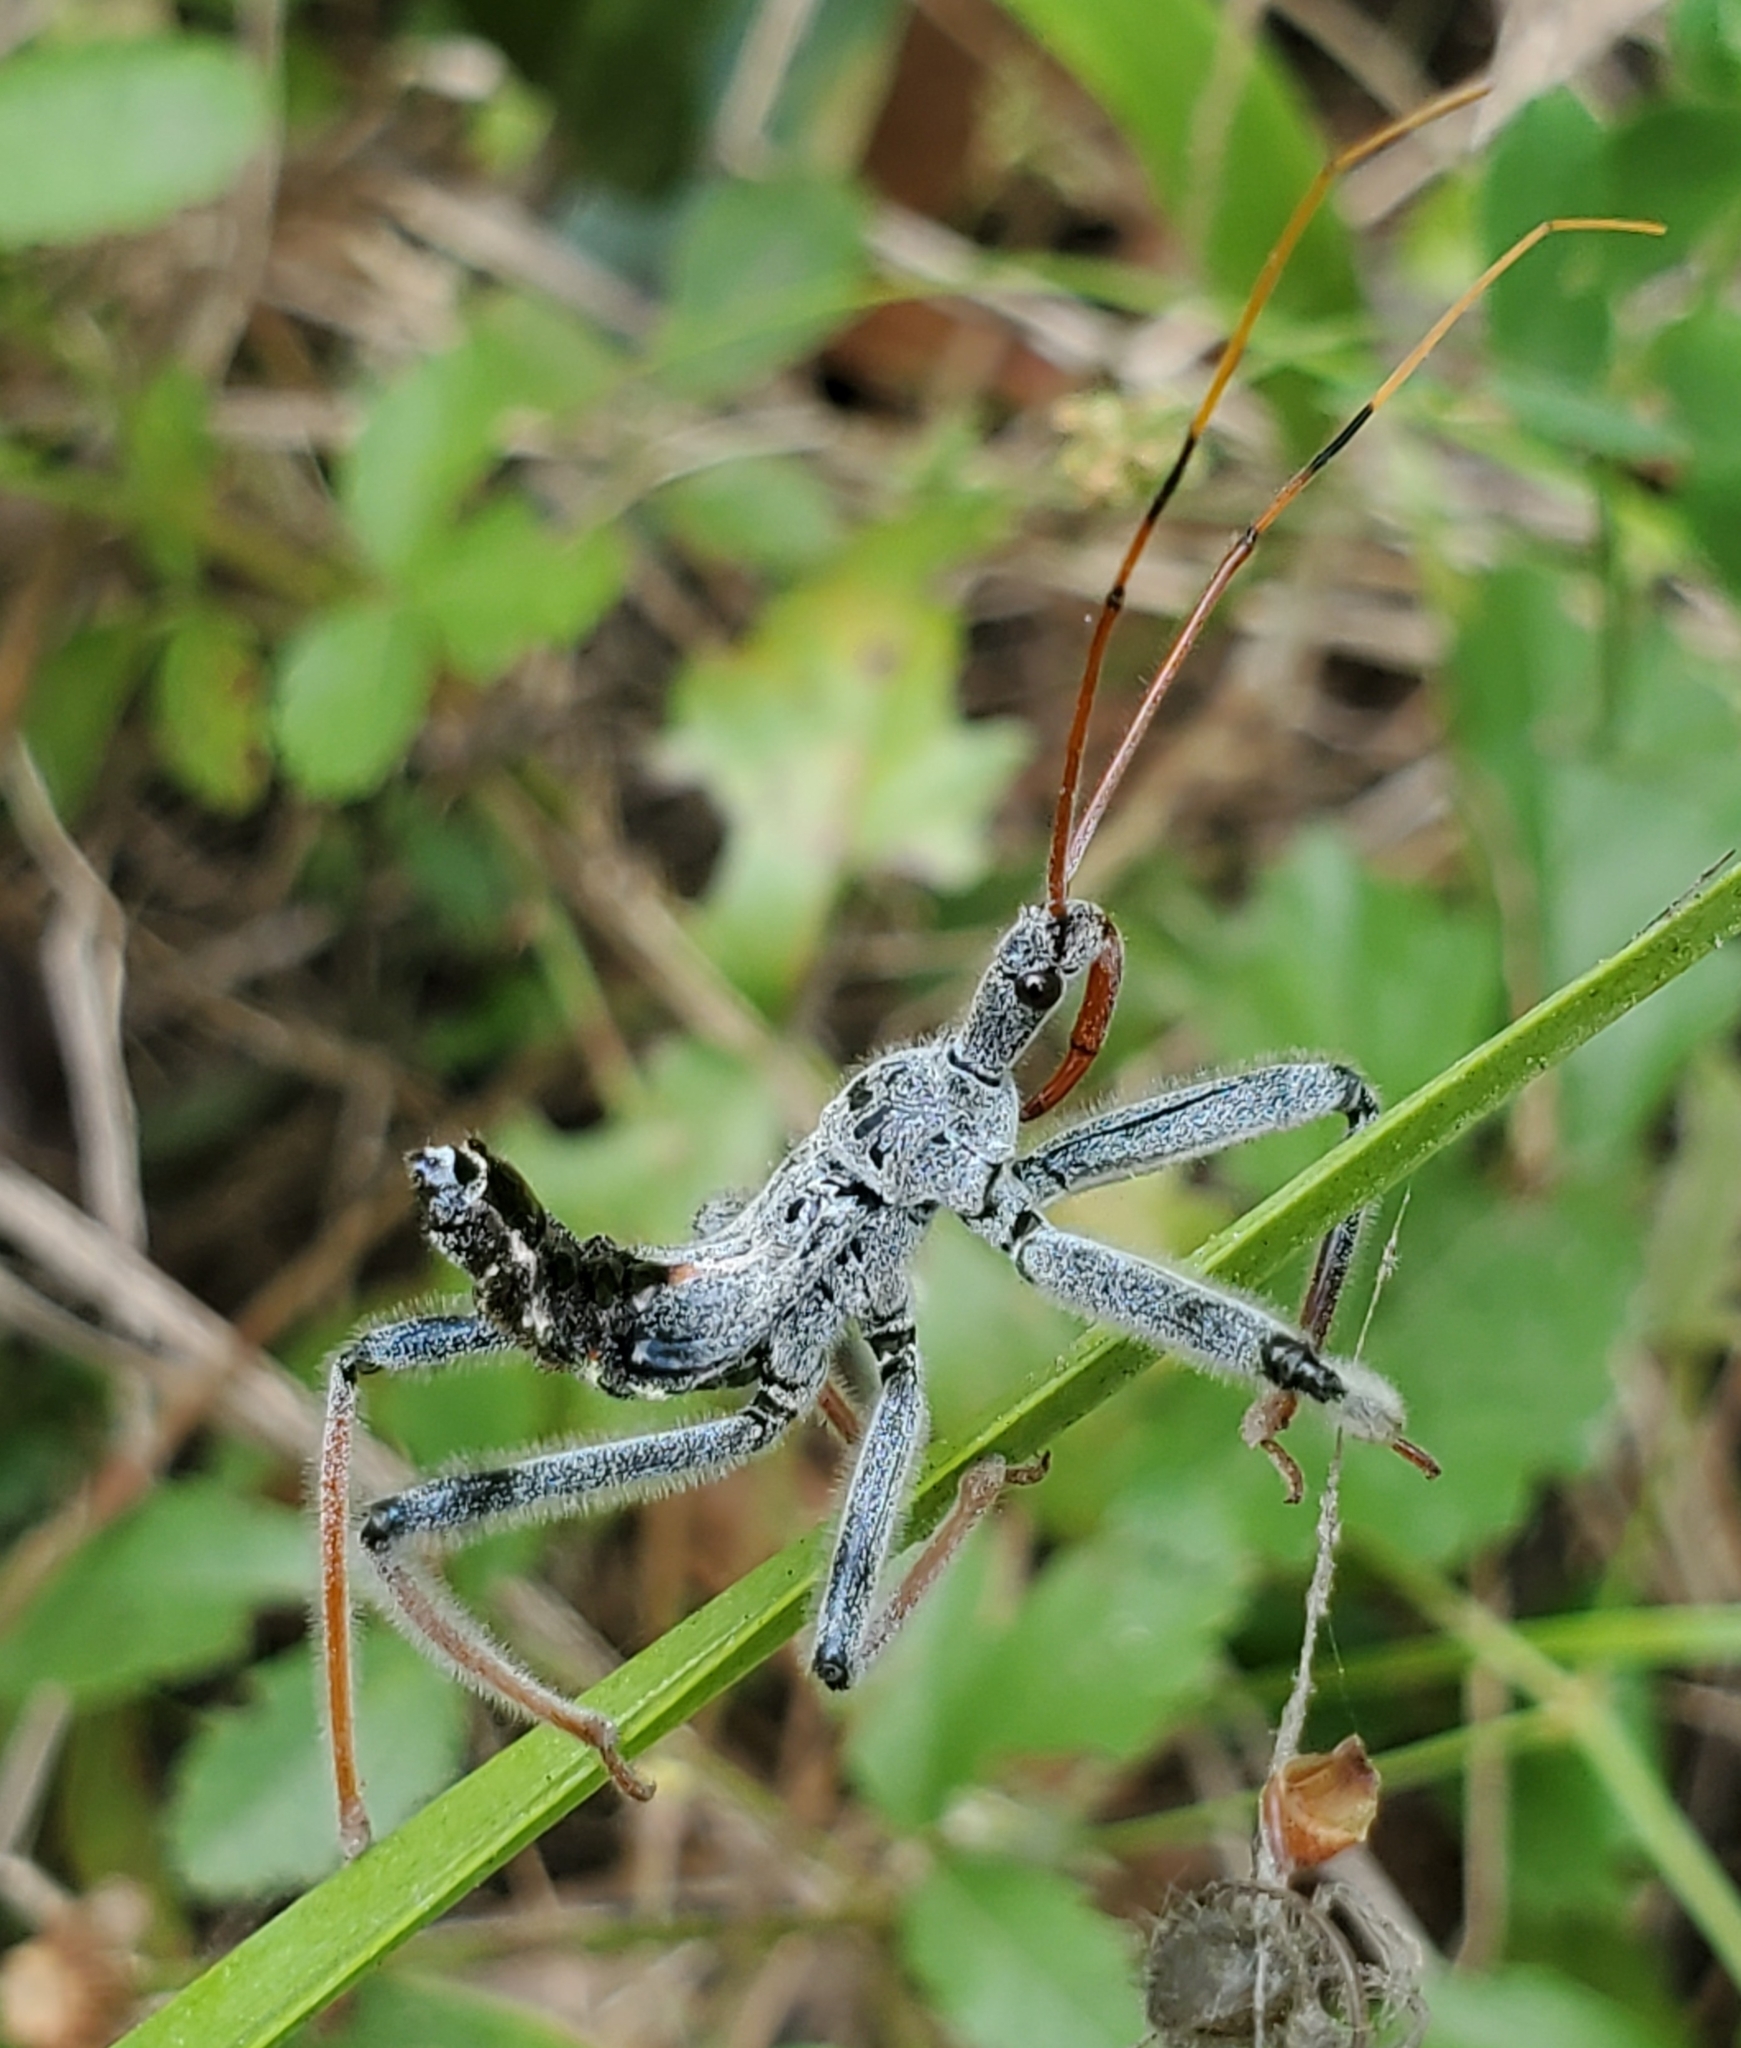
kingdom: Animalia
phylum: Arthropoda
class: Insecta
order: Hemiptera
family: Reduviidae
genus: Arilus
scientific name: Arilus cristatus
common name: North american wheel bug
